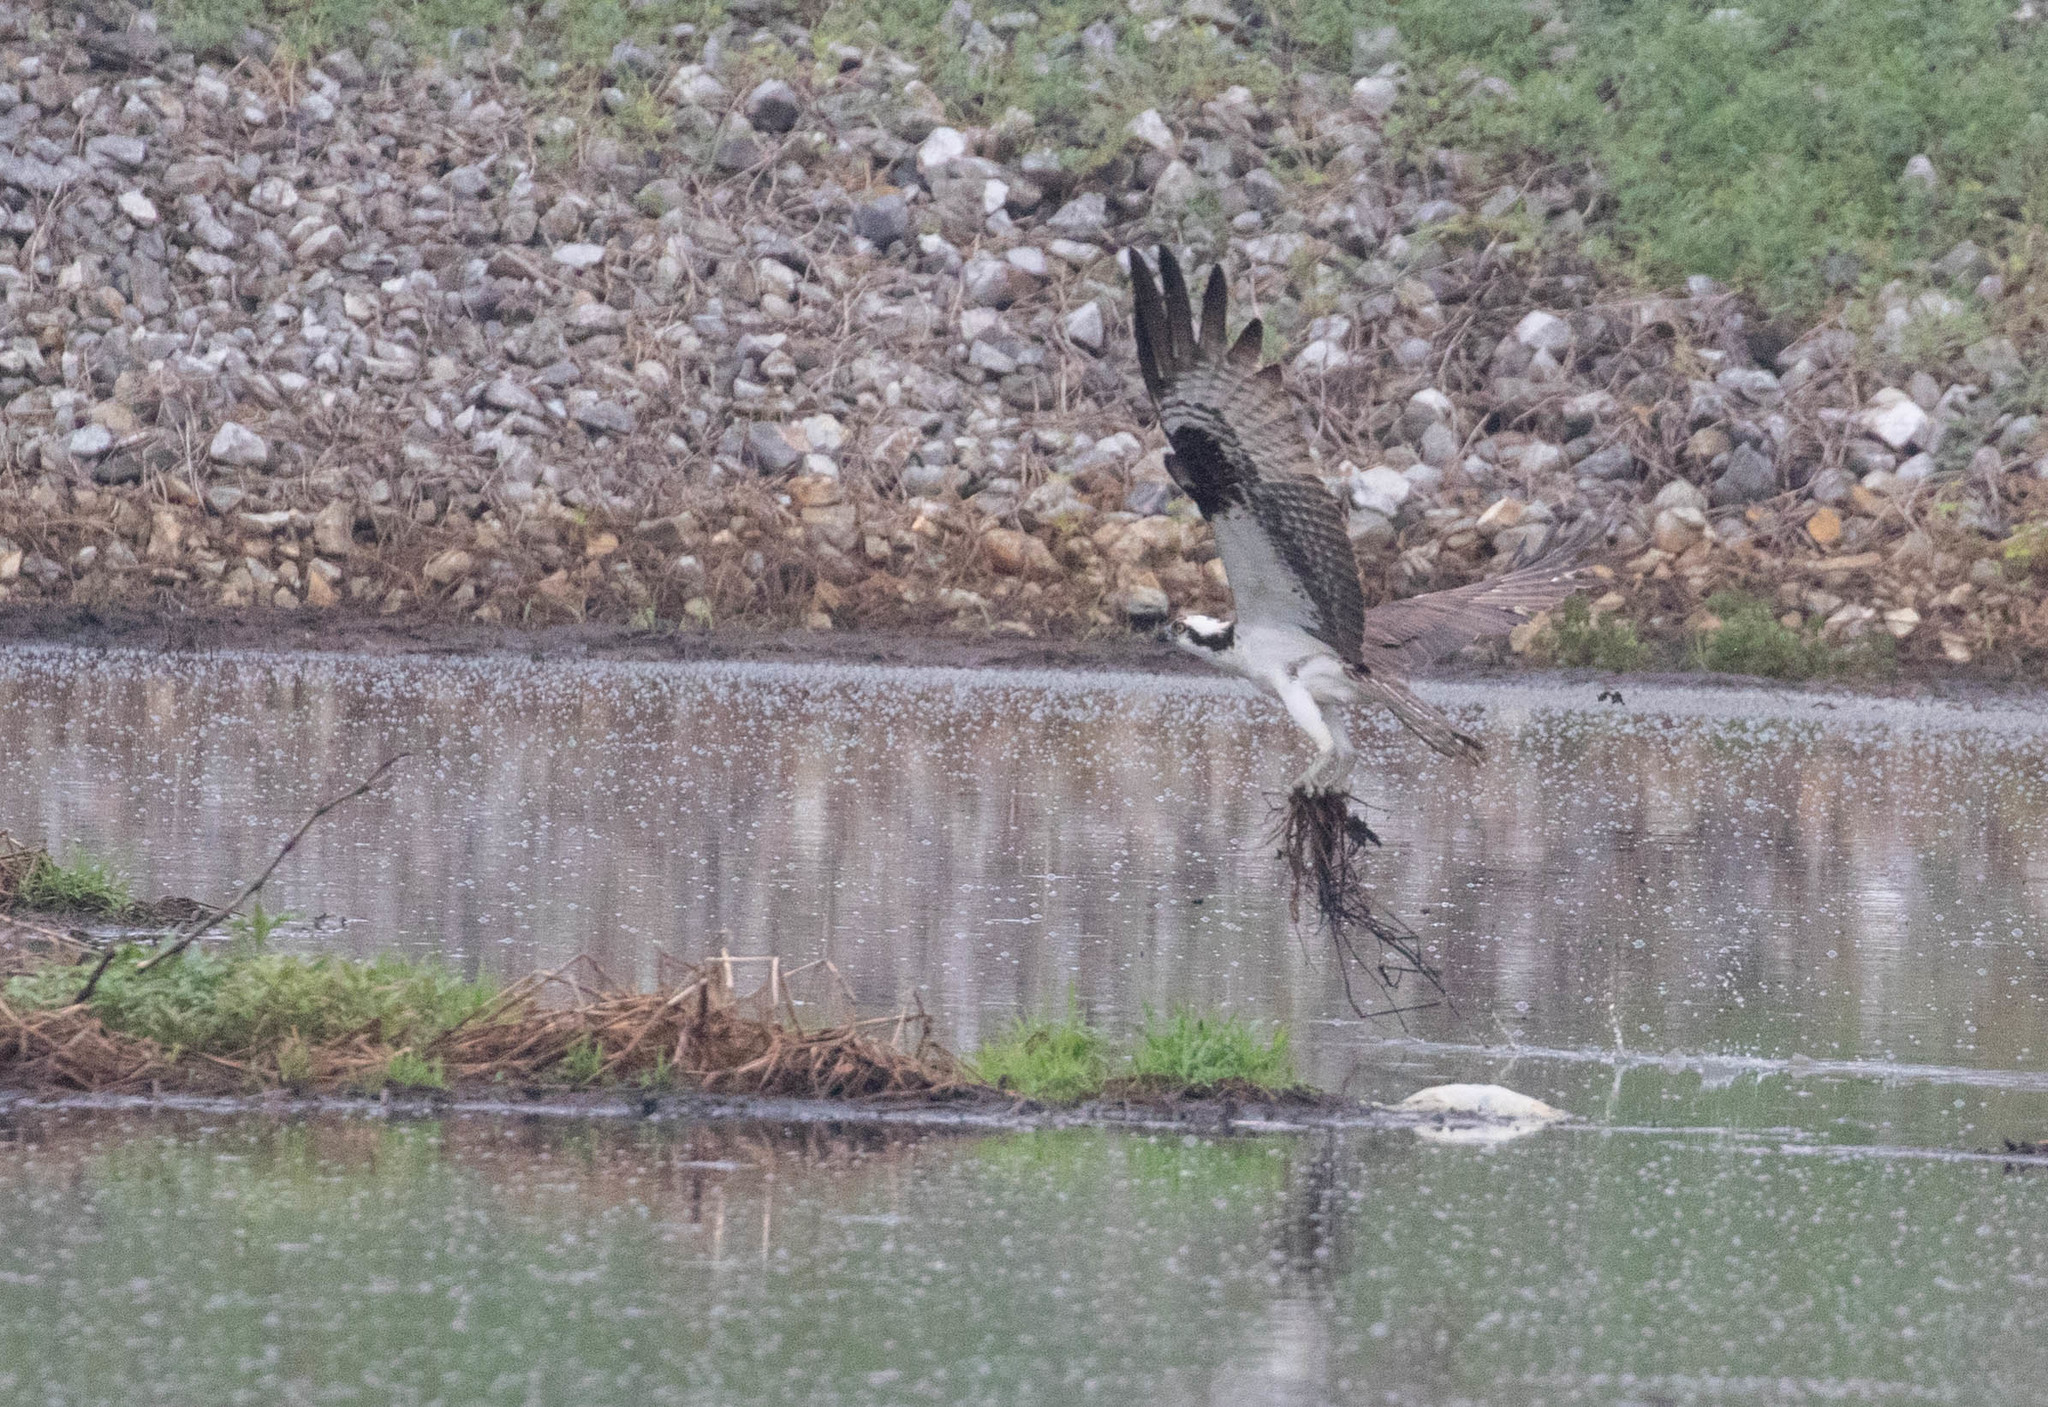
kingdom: Animalia
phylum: Chordata
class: Aves
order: Accipitriformes
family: Pandionidae
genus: Pandion
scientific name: Pandion haliaetus
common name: Osprey
